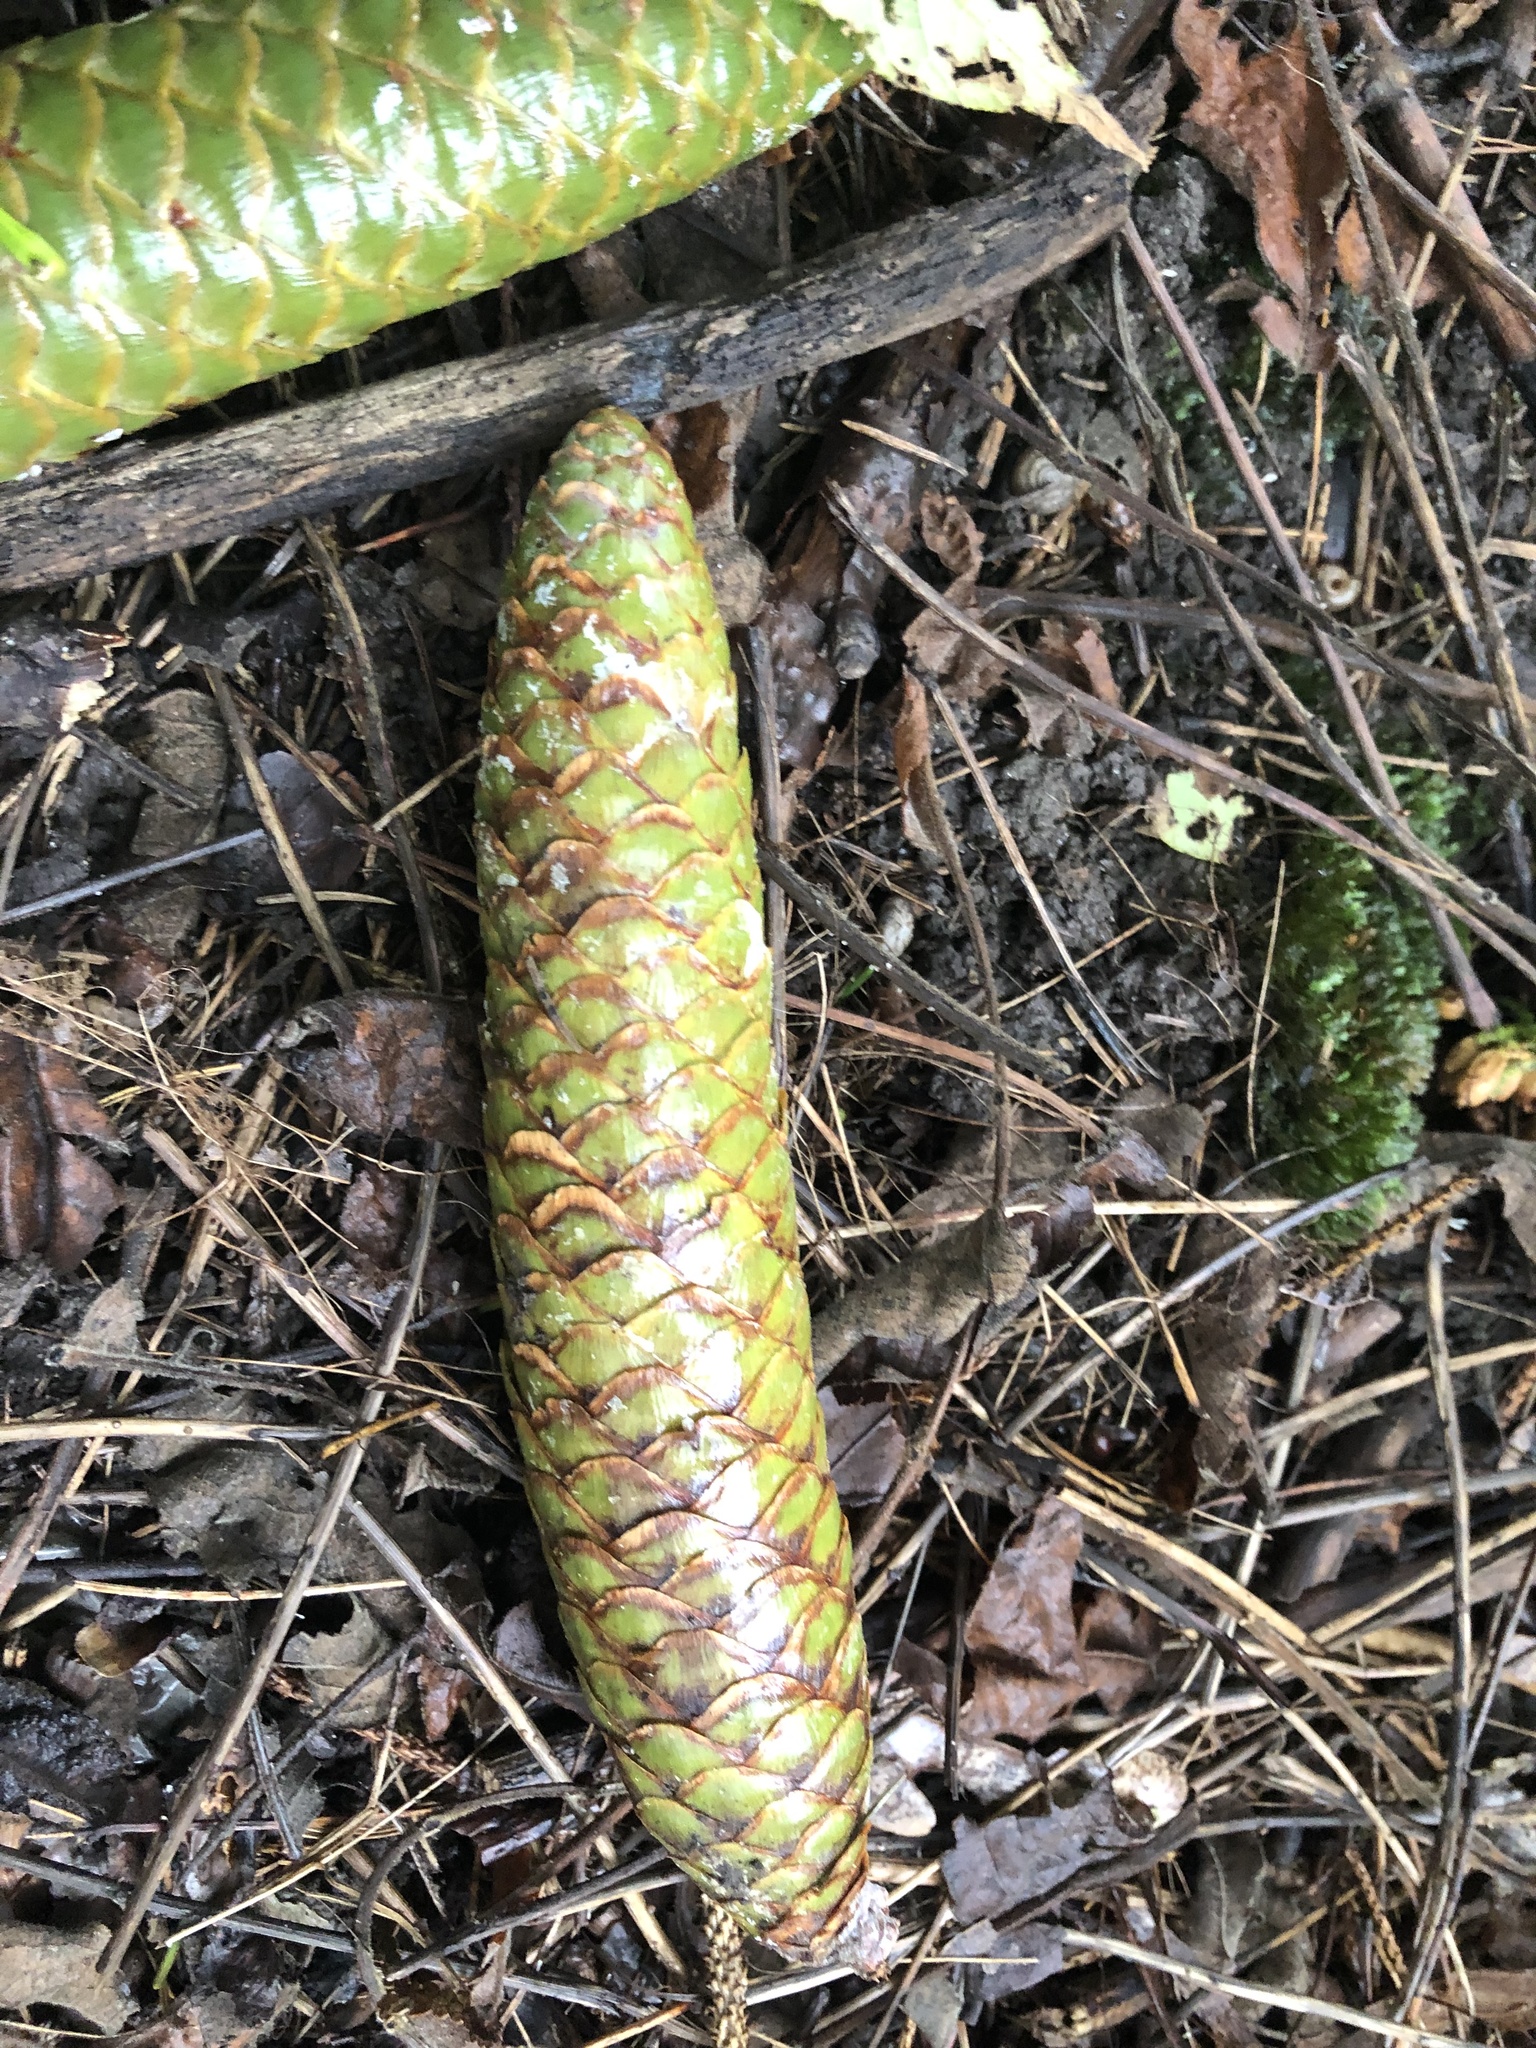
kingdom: Plantae
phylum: Tracheophyta
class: Pinopsida
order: Pinales
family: Pinaceae
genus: Picea
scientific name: Picea abies
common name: Norway spruce
